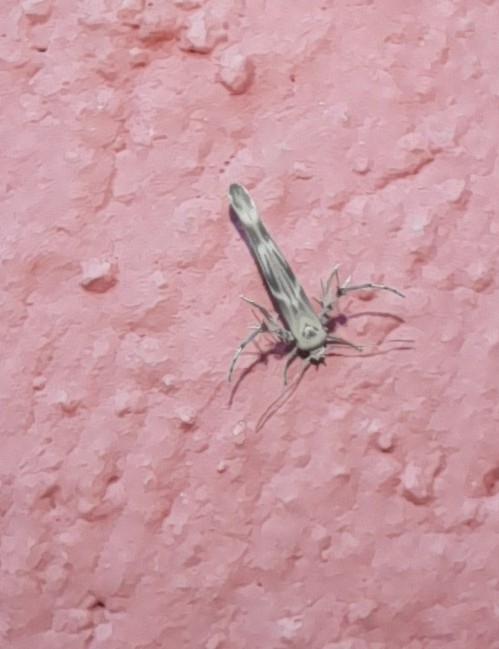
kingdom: Animalia
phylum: Arthropoda
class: Insecta
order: Lepidoptera
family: Gelechiidae
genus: Palumbina
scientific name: Palumbina guerinii
